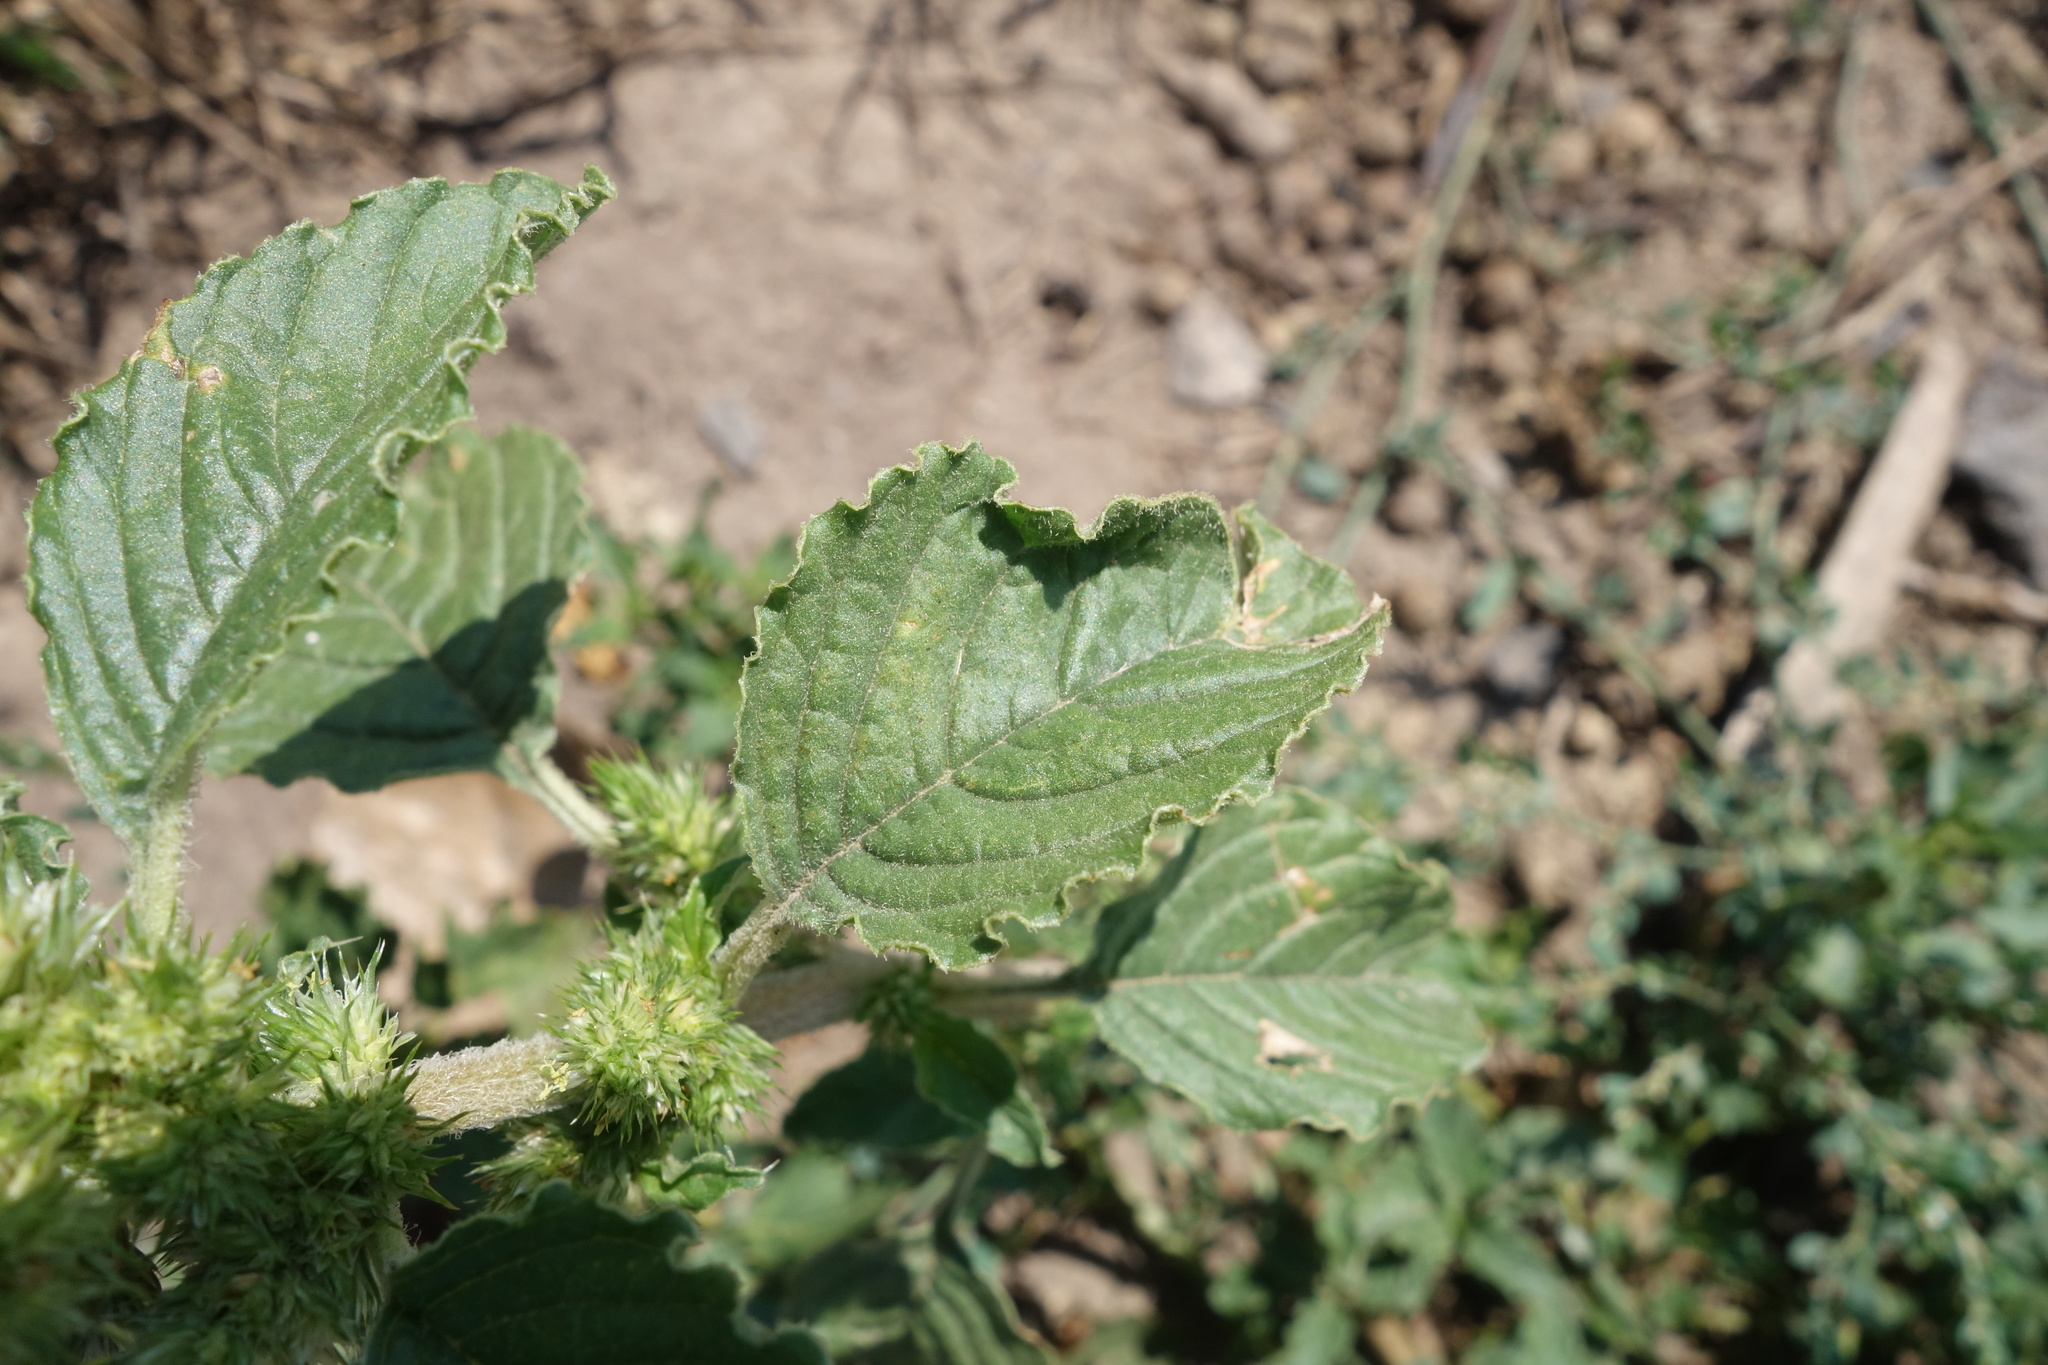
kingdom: Plantae
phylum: Tracheophyta
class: Magnoliopsida
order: Caryophyllales
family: Amaranthaceae
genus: Amaranthus
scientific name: Amaranthus retroflexus
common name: Redroot amaranth
